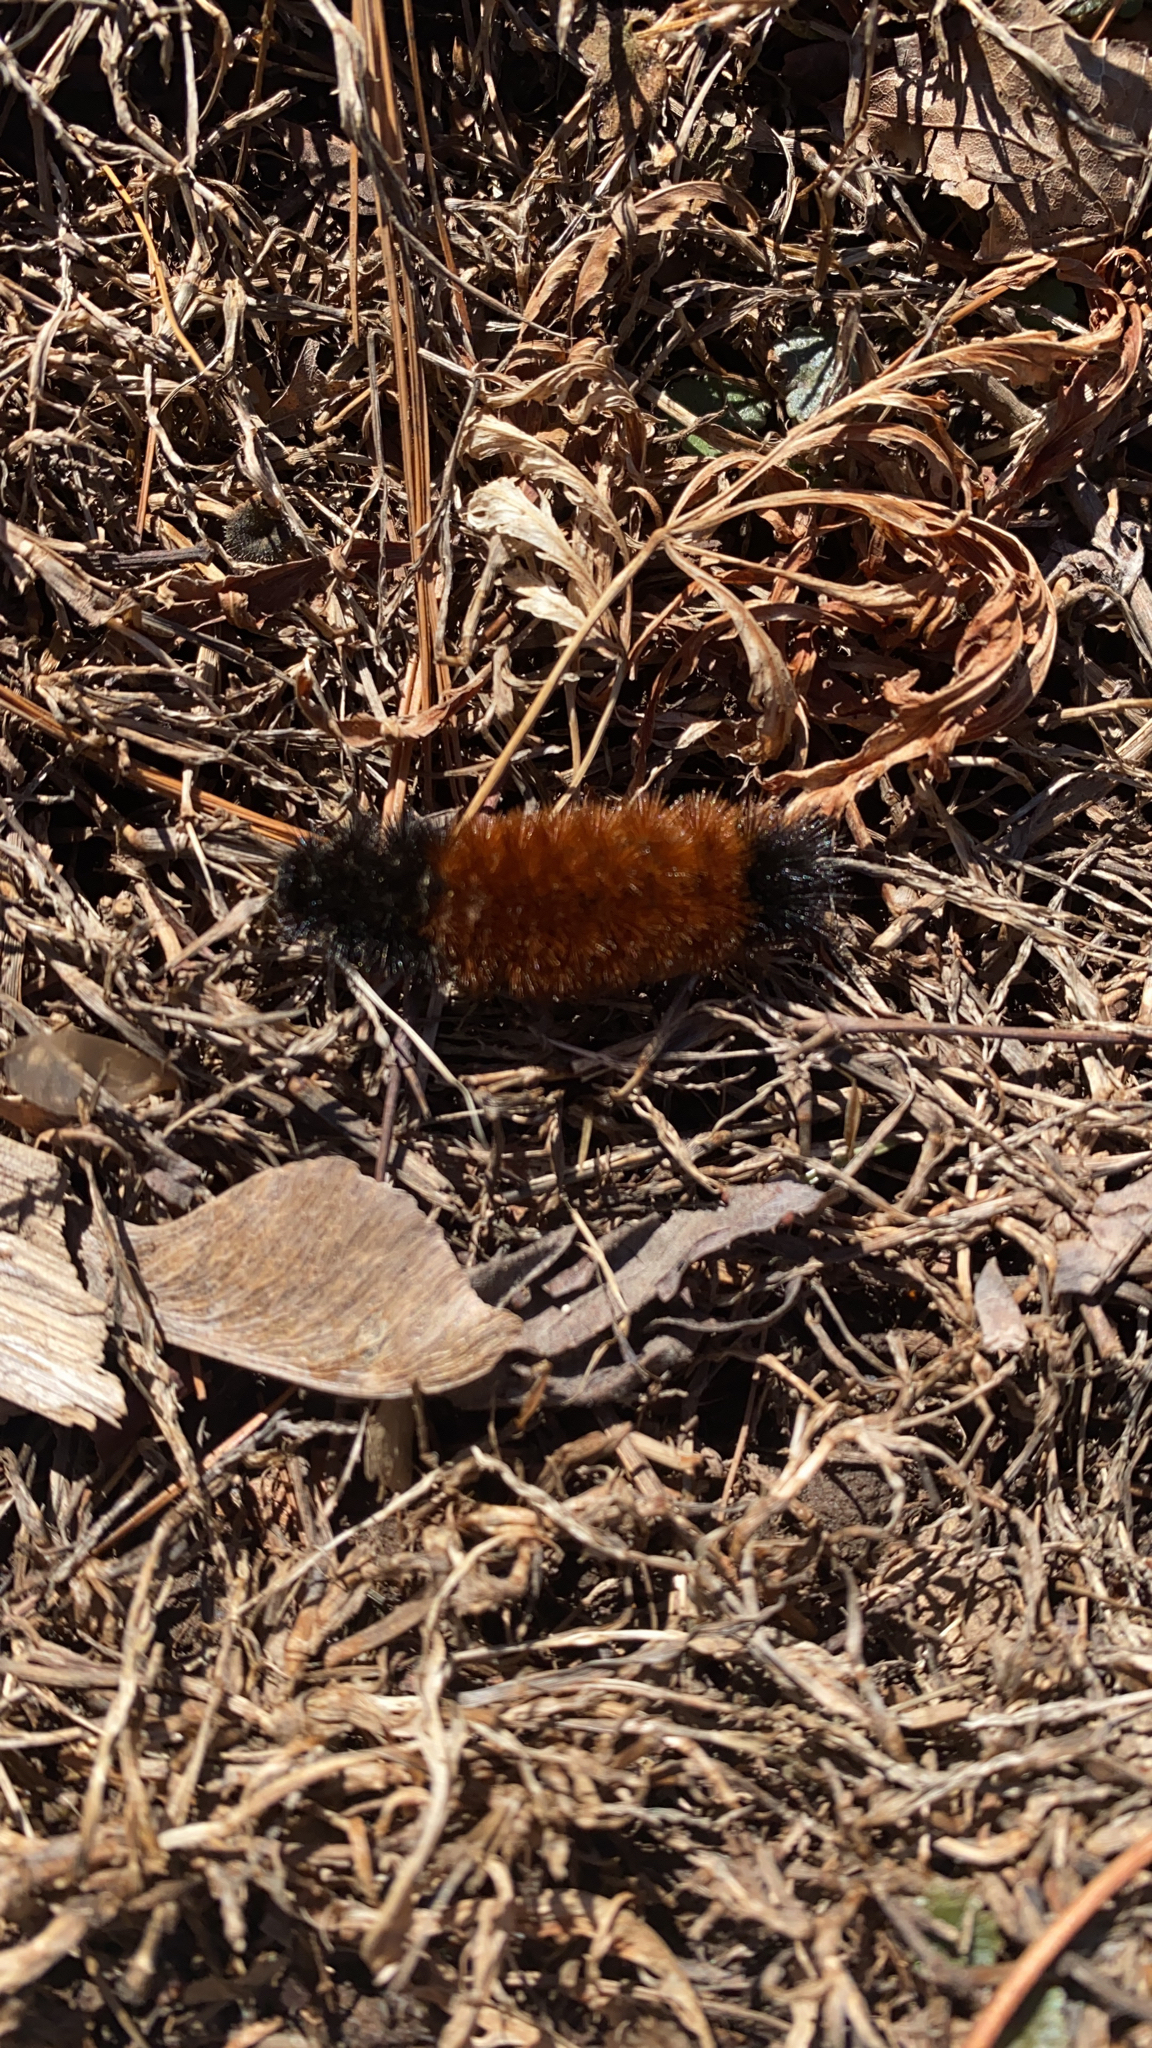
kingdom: Animalia
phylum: Arthropoda
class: Insecta
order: Lepidoptera
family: Erebidae
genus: Pyrrharctia
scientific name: Pyrrharctia isabella
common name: Isabella tiger moth
